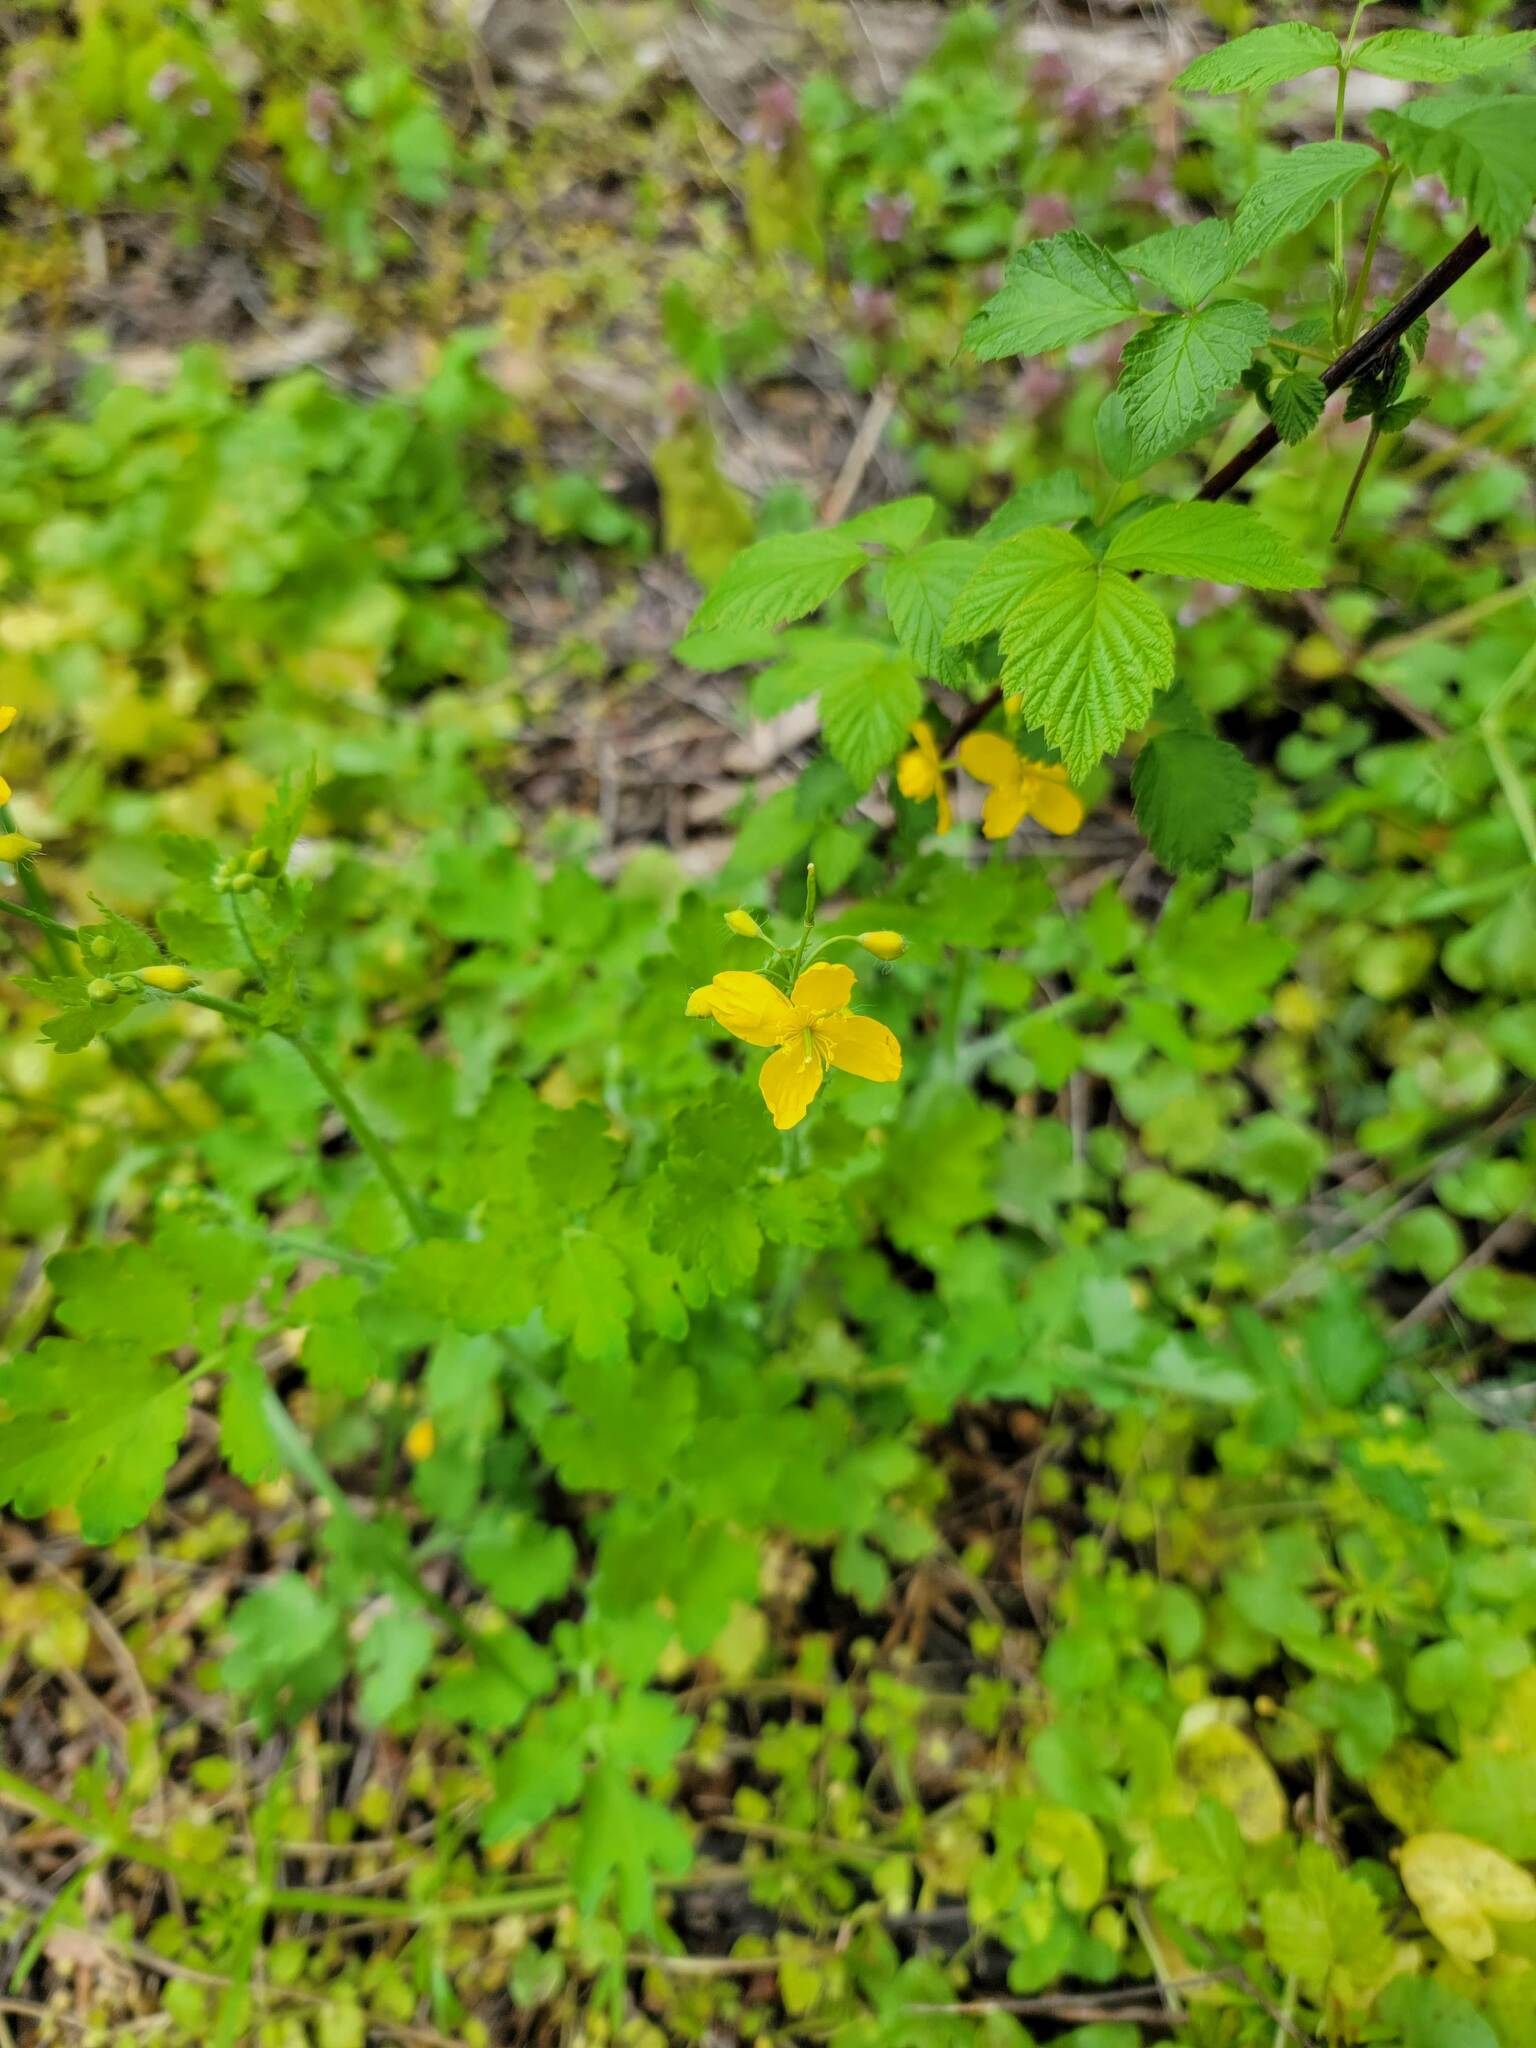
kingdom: Plantae
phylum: Tracheophyta
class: Magnoliopsida
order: Ranunculales
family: Papaveraceae
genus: Chelidonium
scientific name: Chelidonium majus
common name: Greater celandine
